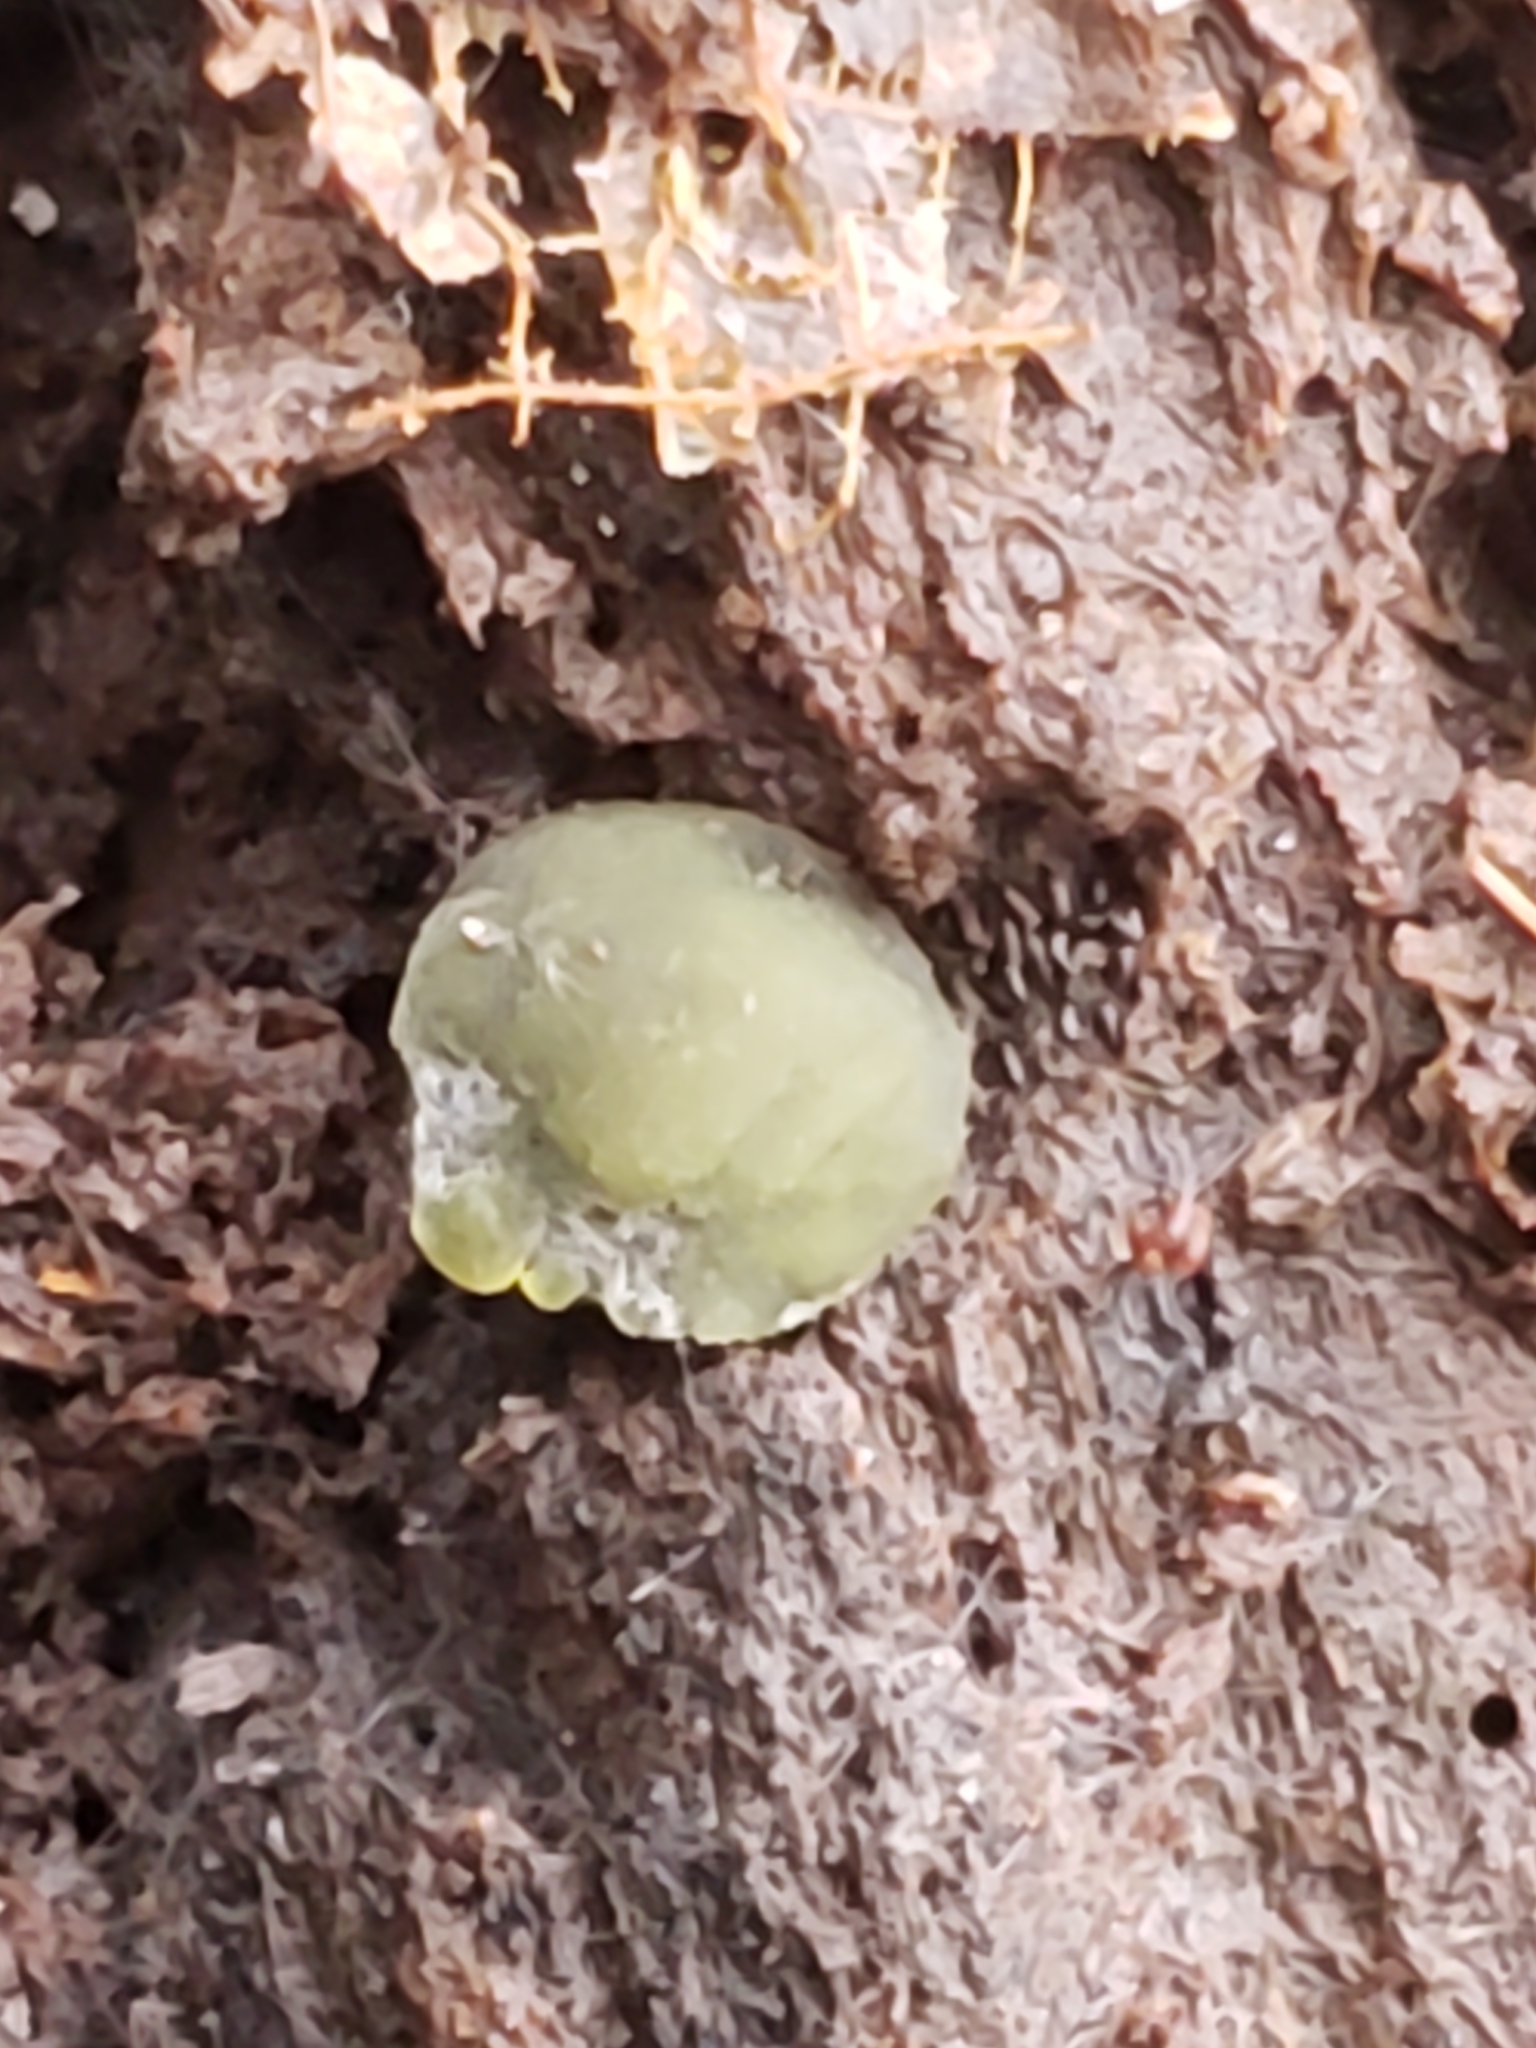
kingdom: Fungi
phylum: Ascomycota
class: Leotiomycetes
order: Helotiales
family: Cenangiaceae
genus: Chlorencoelia
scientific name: Chlorencoelia versiformis
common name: Flea's ear
